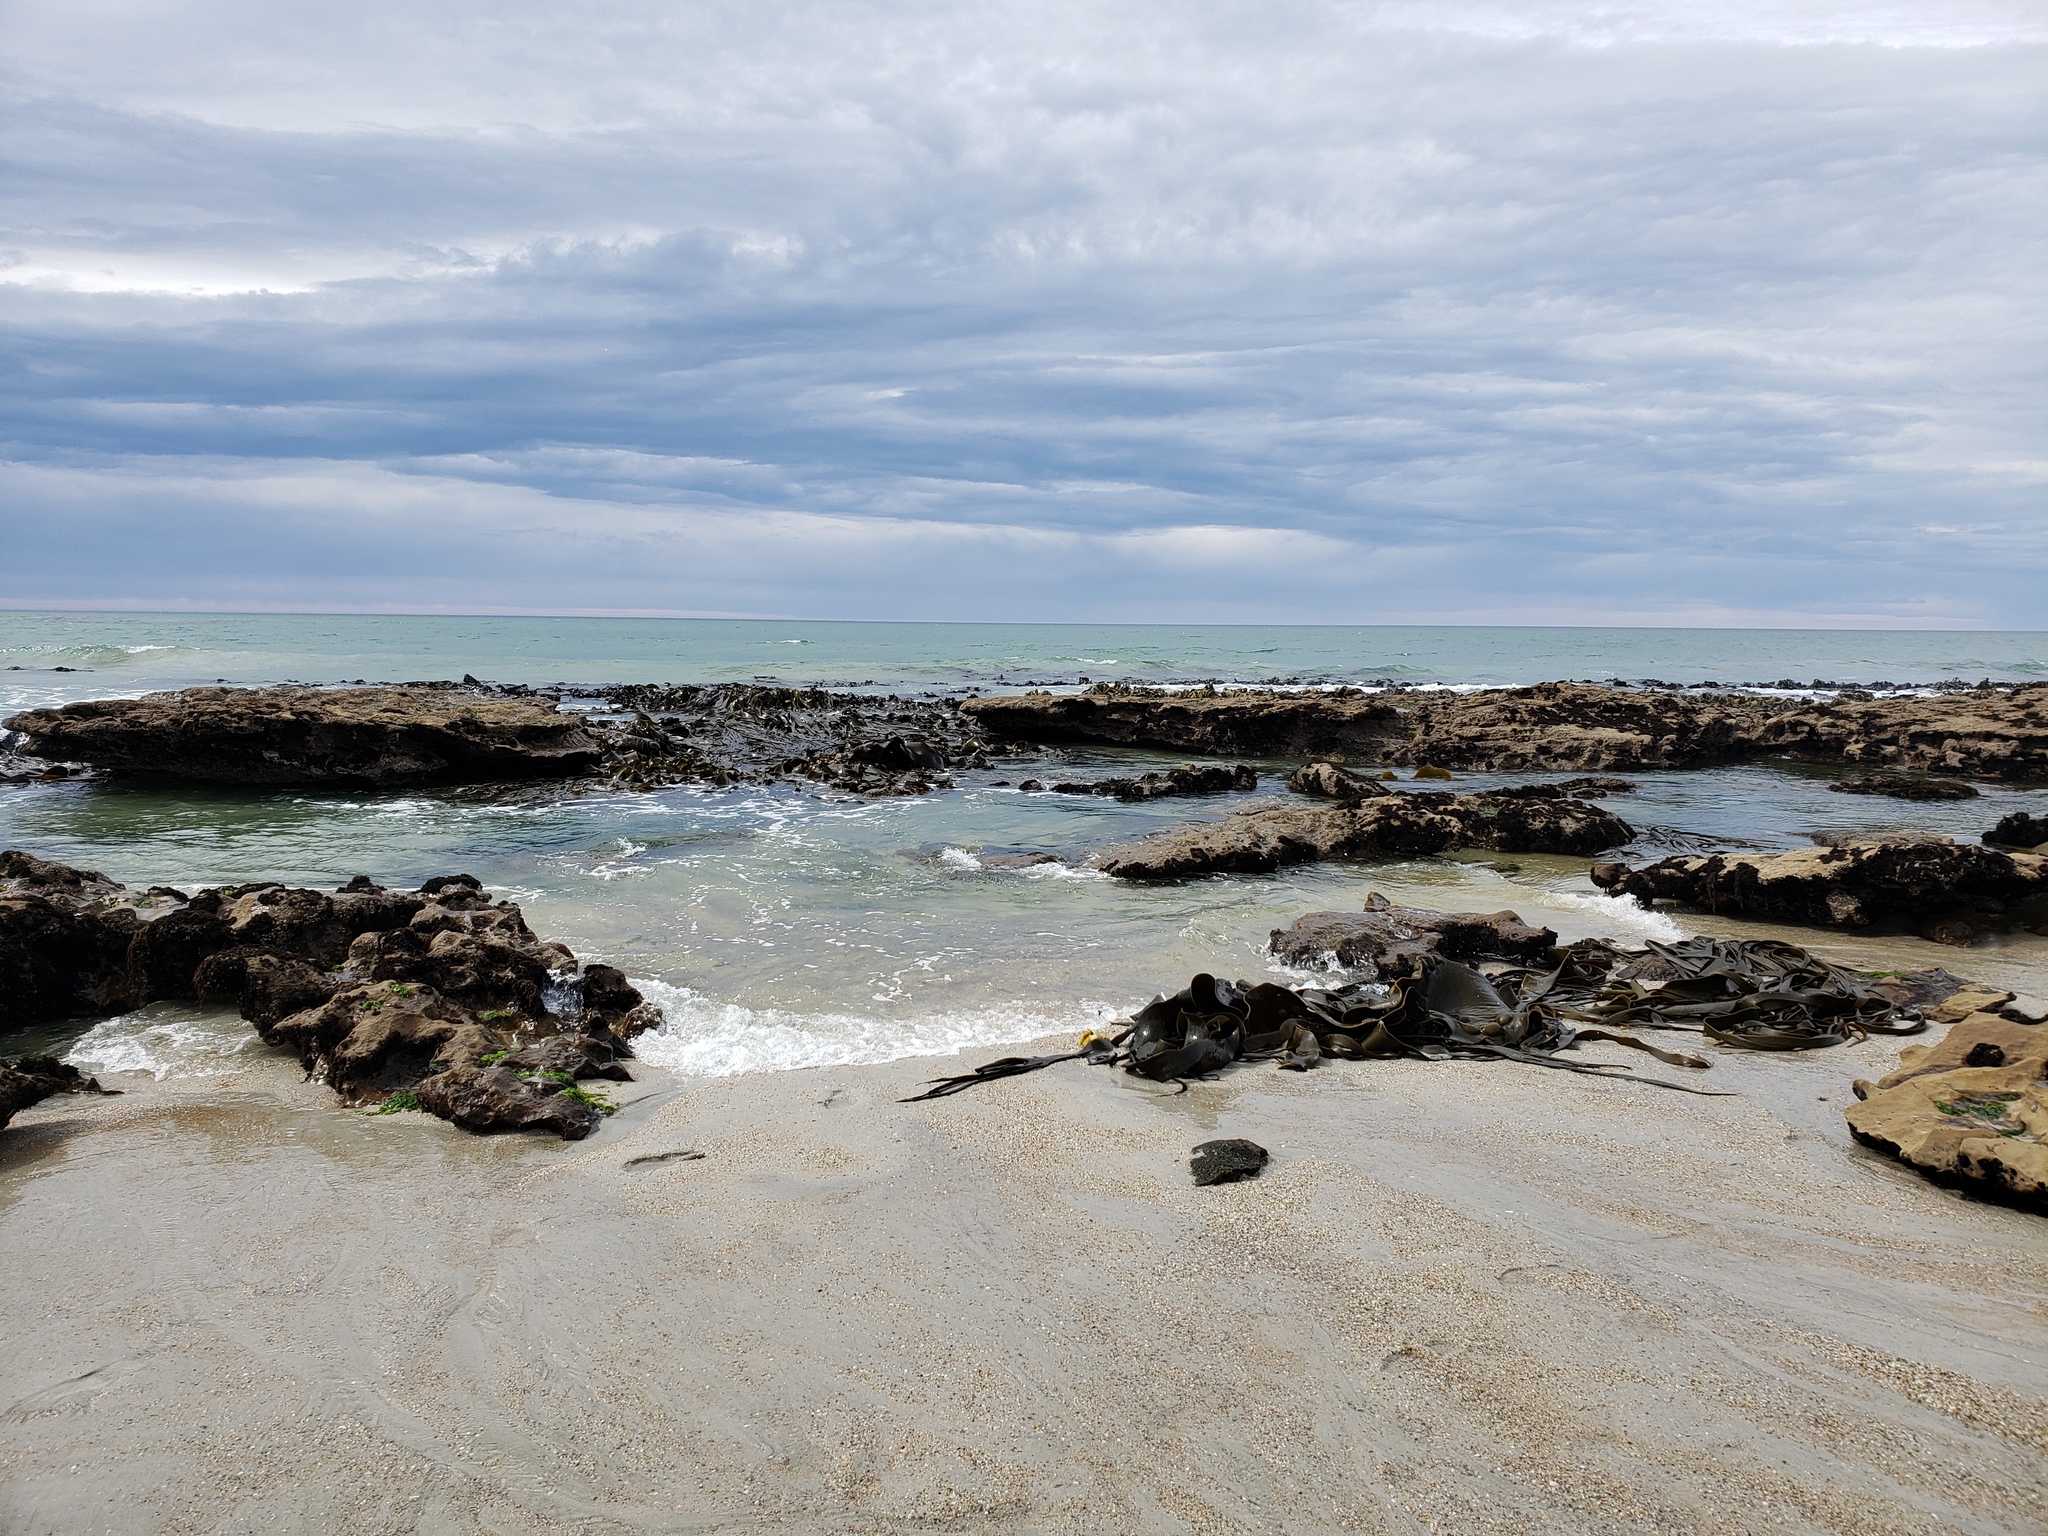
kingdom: Chromista
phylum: Ochrophyta
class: Phaeophyceae
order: Fucales
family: Durvillaeaceae
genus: Durvillaea
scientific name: Durvillaea antarctica
